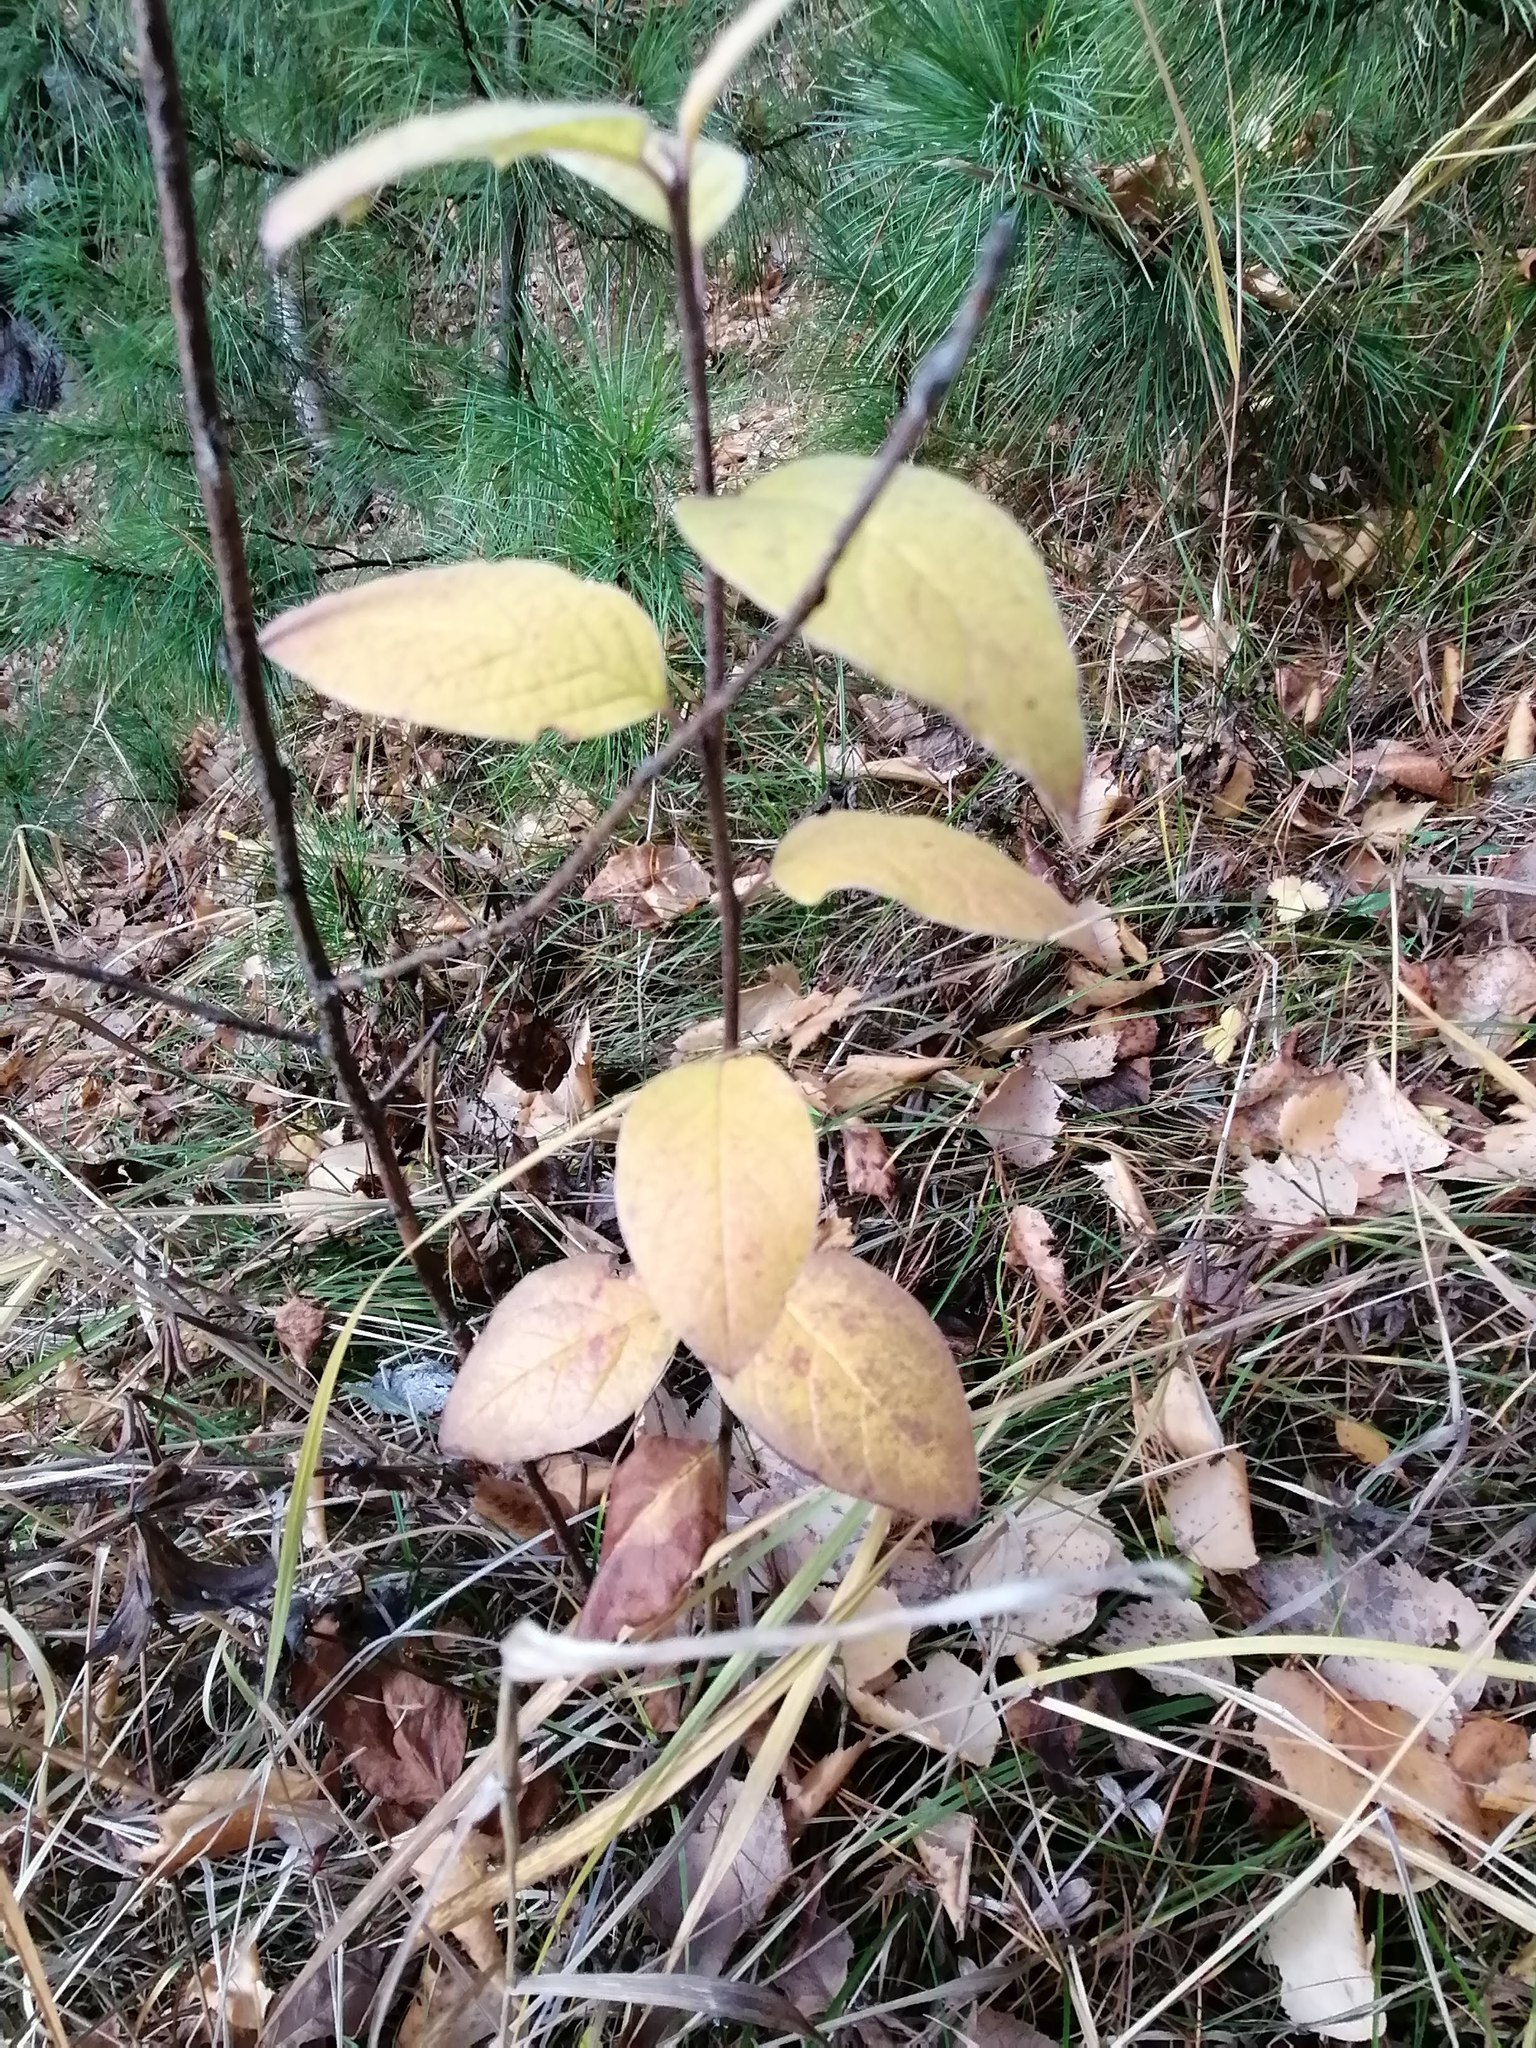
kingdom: Plantae
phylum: Tracheophyta
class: Magnoliopsida
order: Rosales
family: Rosaceae
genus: Cotoneaster
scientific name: Cotoneaster melanocarpus
